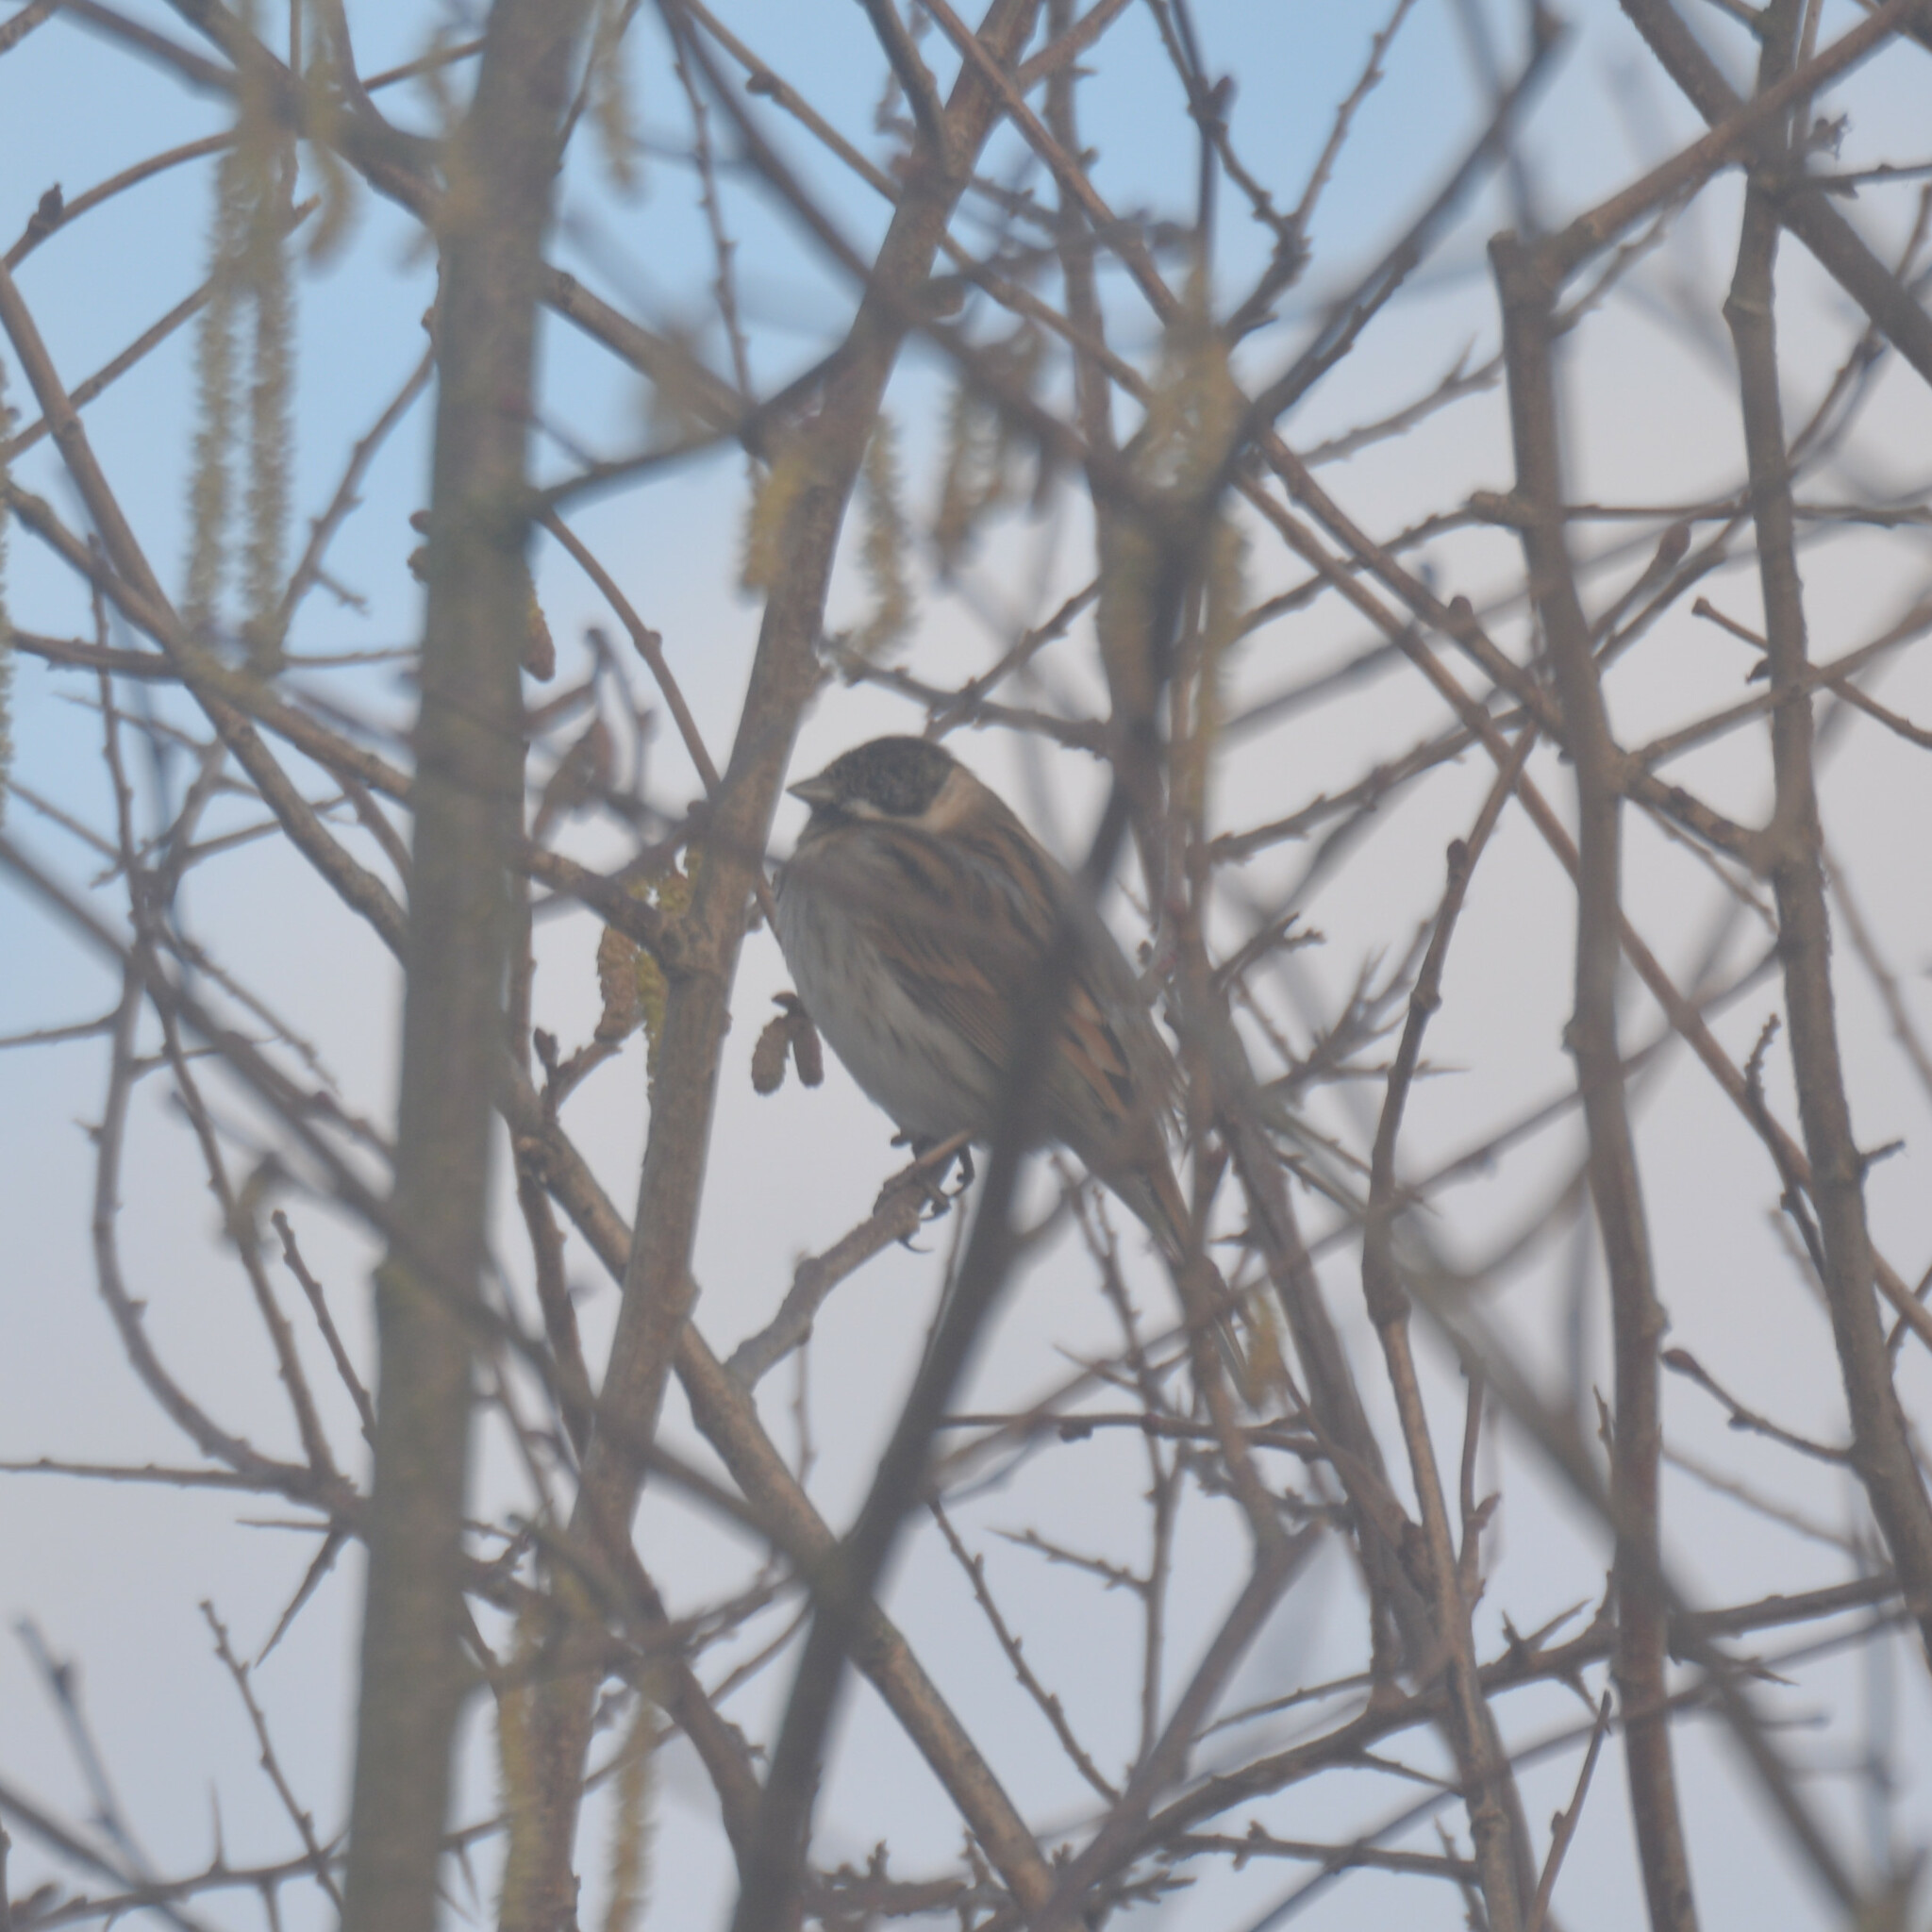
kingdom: Animalia
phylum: Chordata
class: Aves
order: Passeriformes
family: Emberizidae
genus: Emberiza
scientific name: Emberiza schoeniclus
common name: Reed bunting
